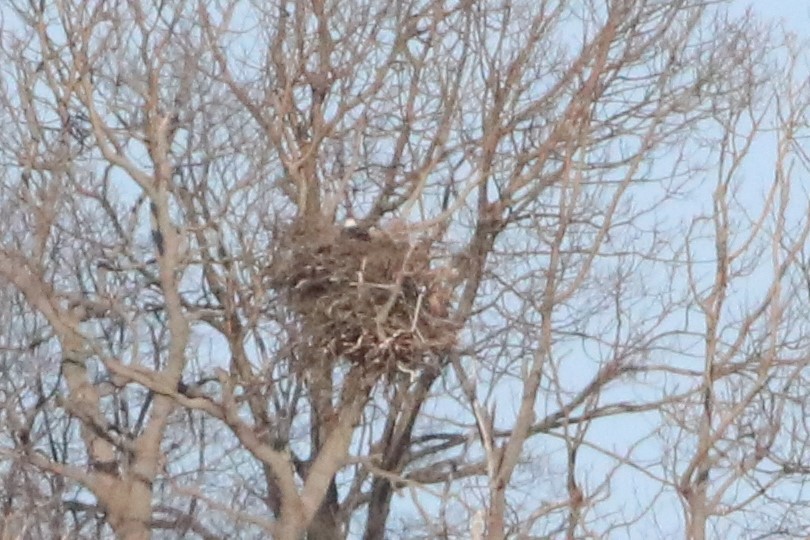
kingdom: Animalia
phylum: Chordata
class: Aves
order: Accipitriformes
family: Accipitridae
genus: Haliaeetus
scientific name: Haliaeetus leucocephalus
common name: Bald eagle
